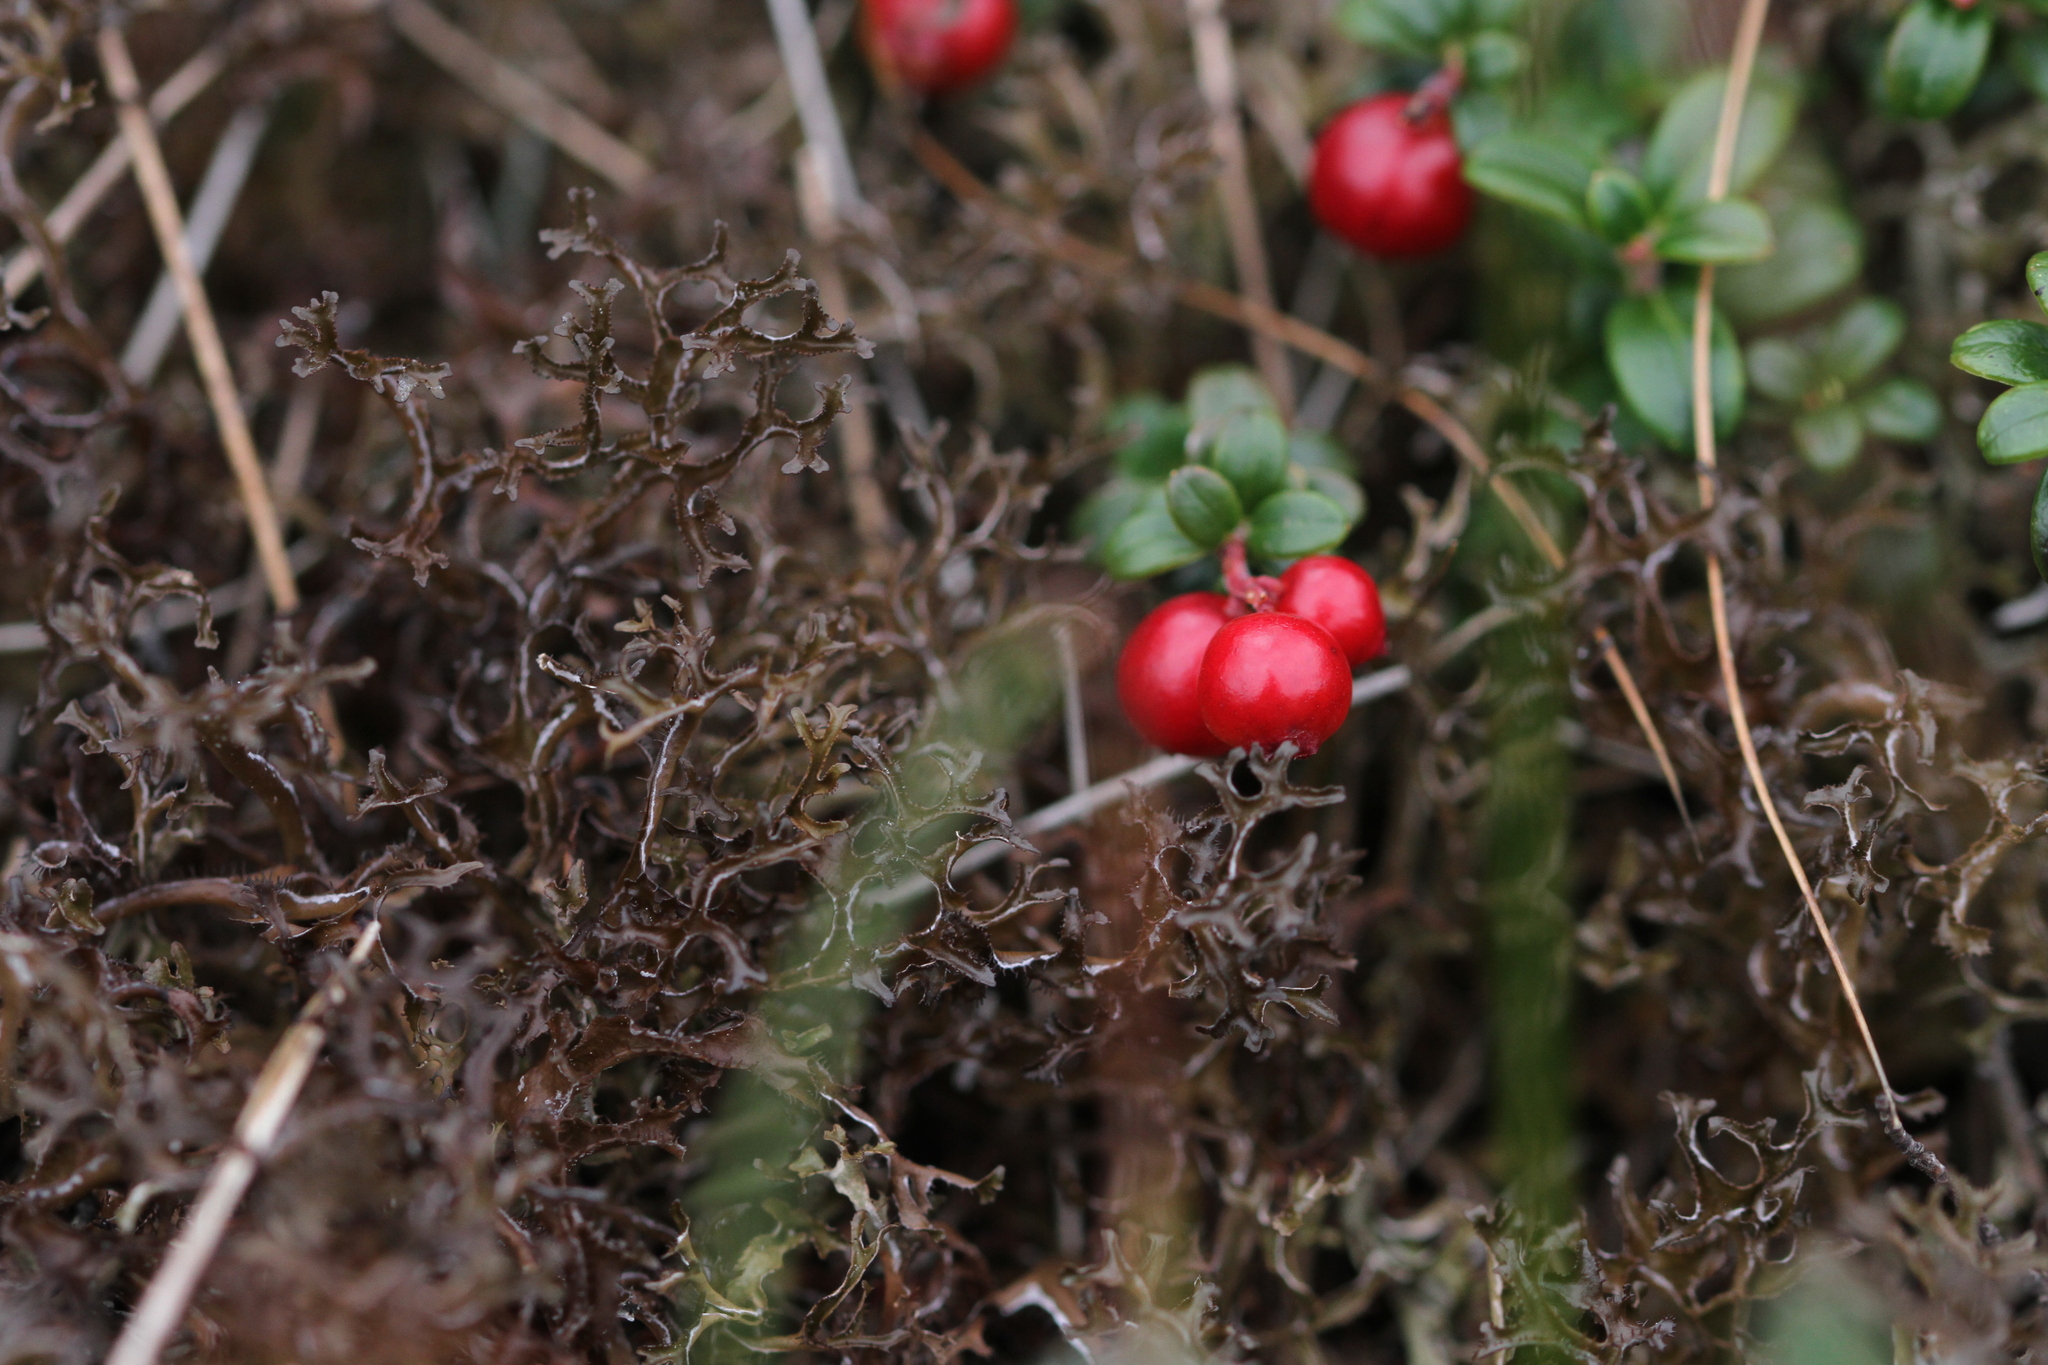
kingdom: Plantae
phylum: Tracheophyta
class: Magnoliopsida
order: Ericales
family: Ericaceae
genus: Vaccinium
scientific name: Vaccinium vitis-idaea
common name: Cowberry
